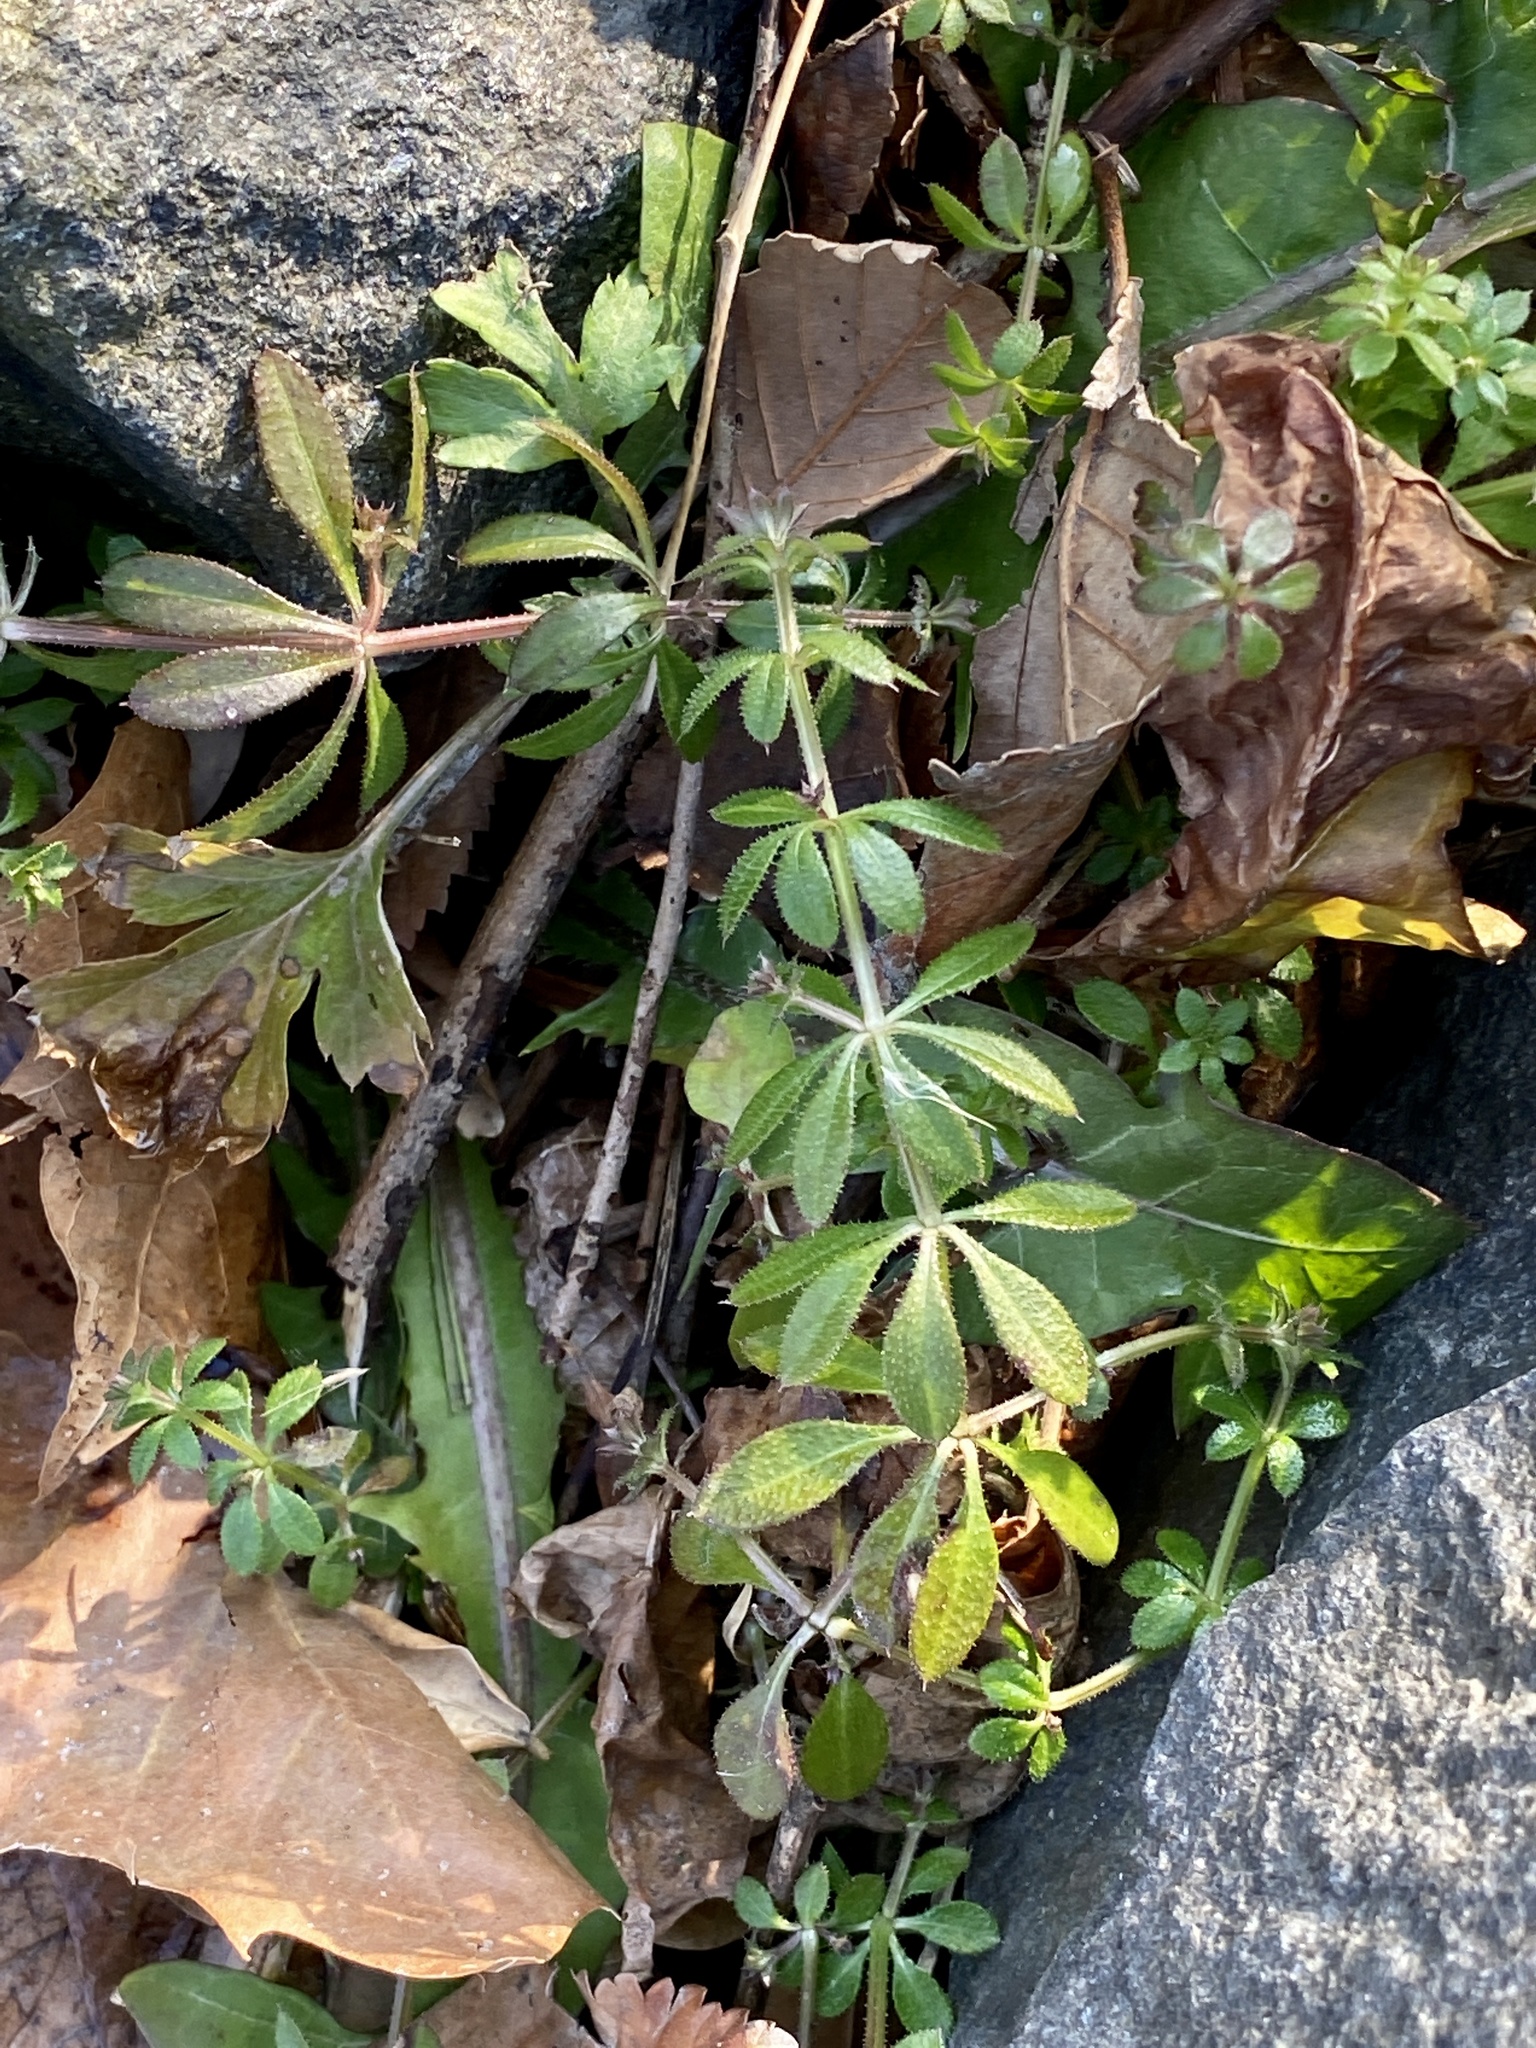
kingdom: Plantae
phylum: Tracheophyta
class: Magnoliopsida
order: Gentianales
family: Rubiaceae
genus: Galium
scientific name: Galium aparine
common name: Cleavers
